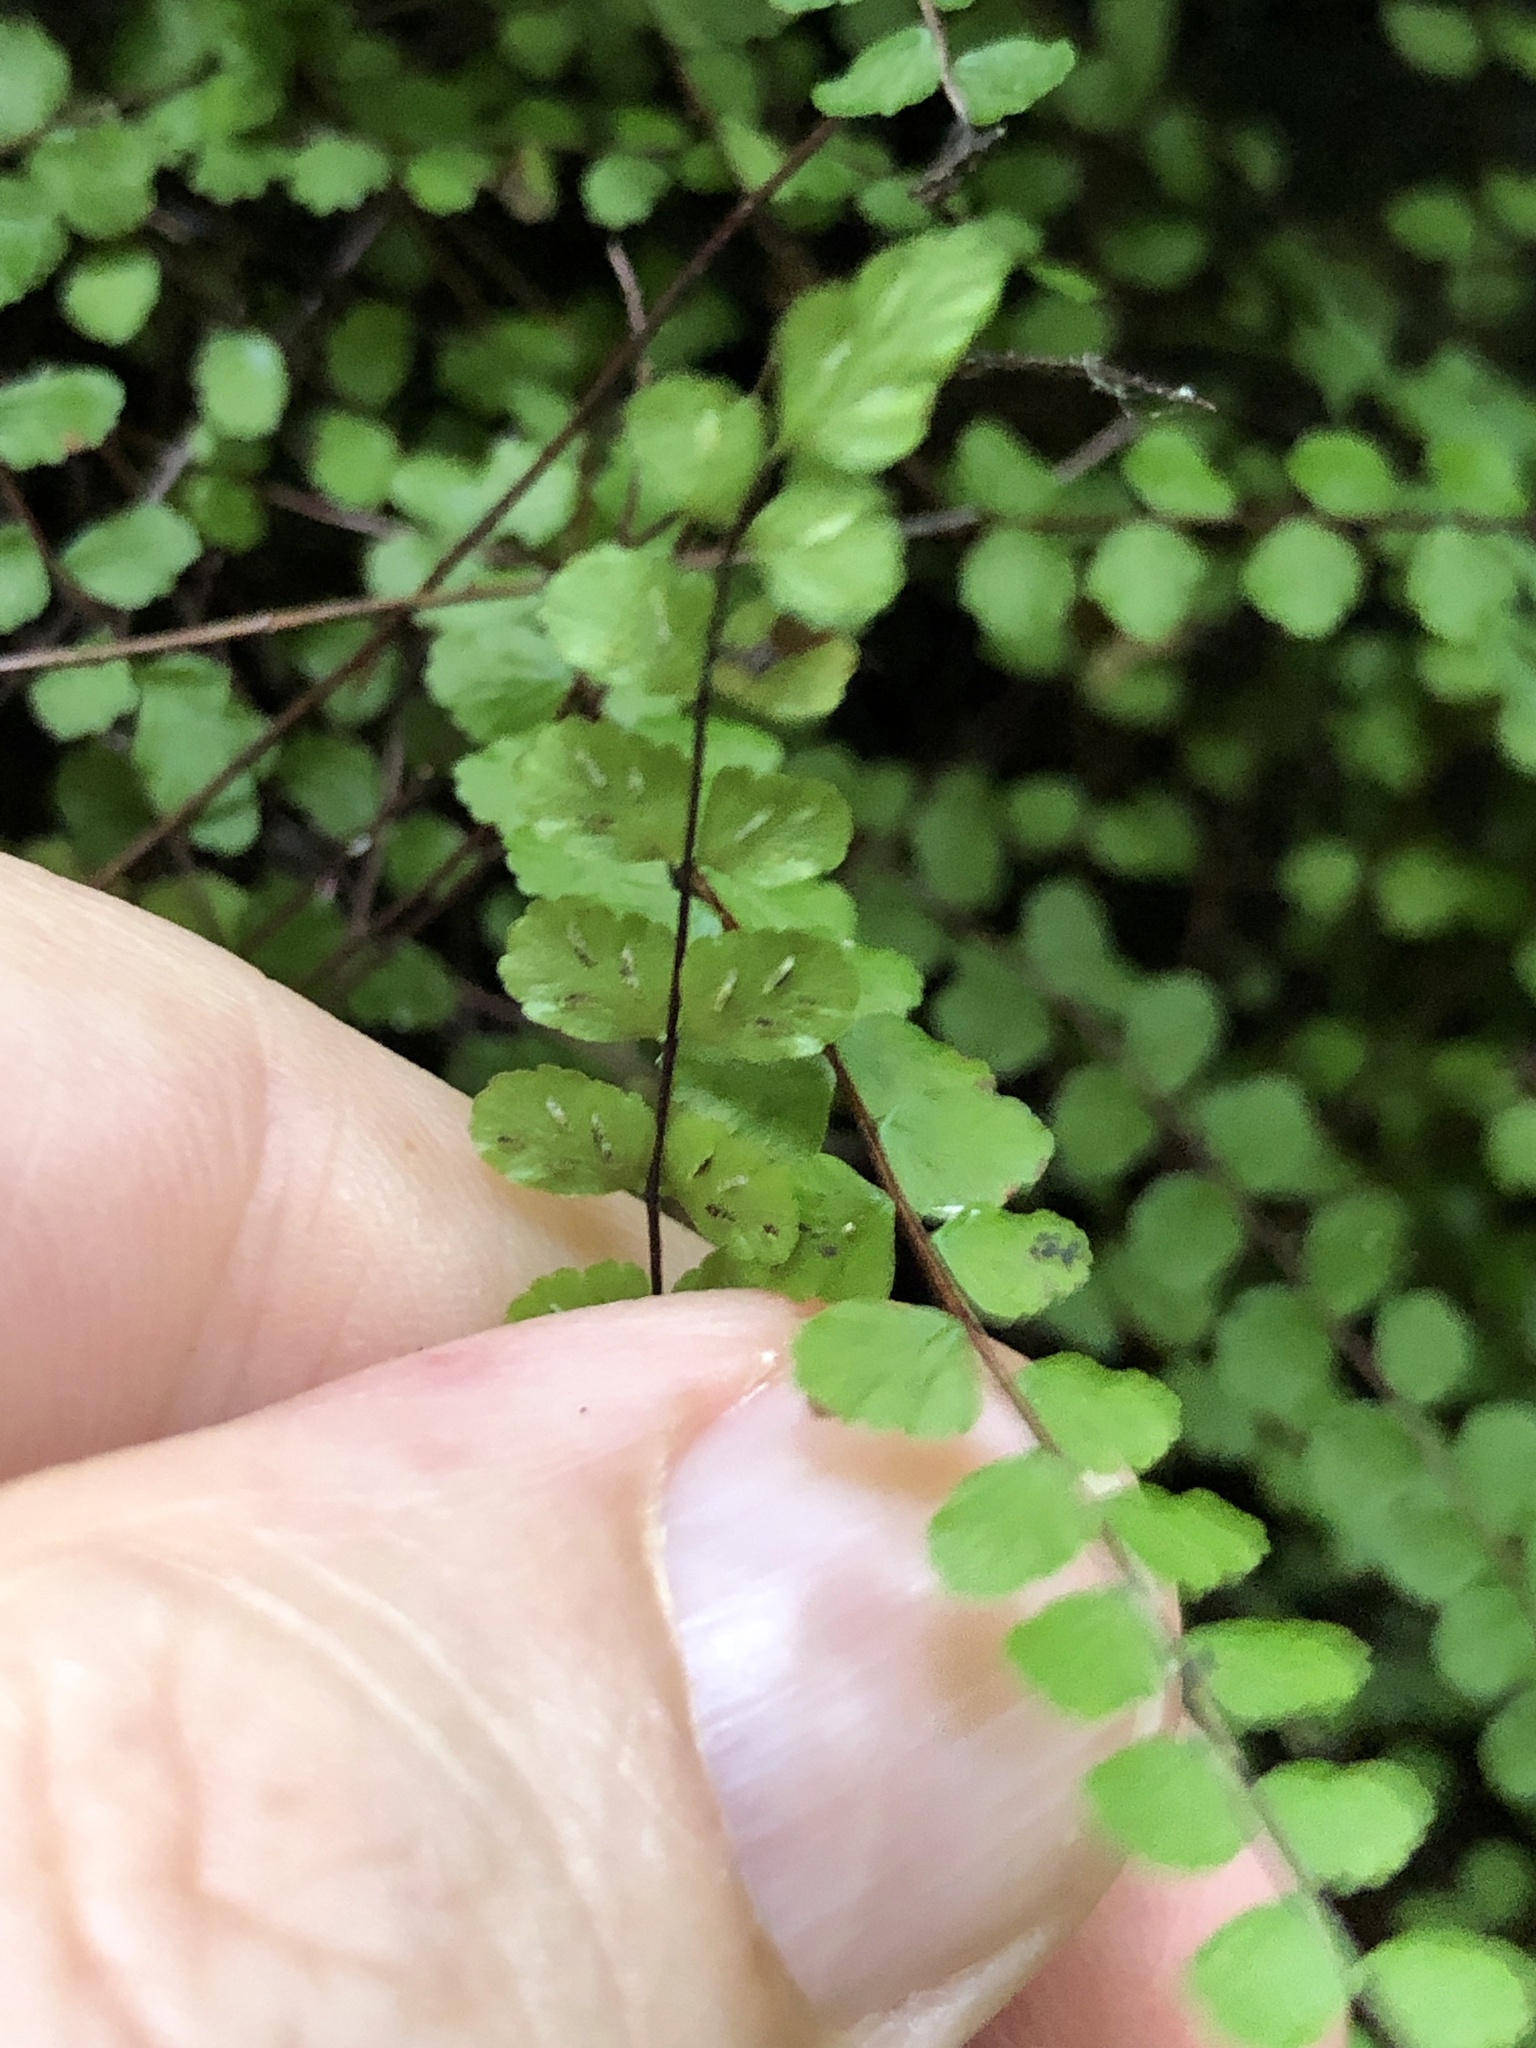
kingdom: Plantae
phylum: Tracheophyta
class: Polypodiopsida
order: Polypodiales
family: Aspleniaceae
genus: Asplenium
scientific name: Asplenium trichomanes
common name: Maidenhair spleenwort
